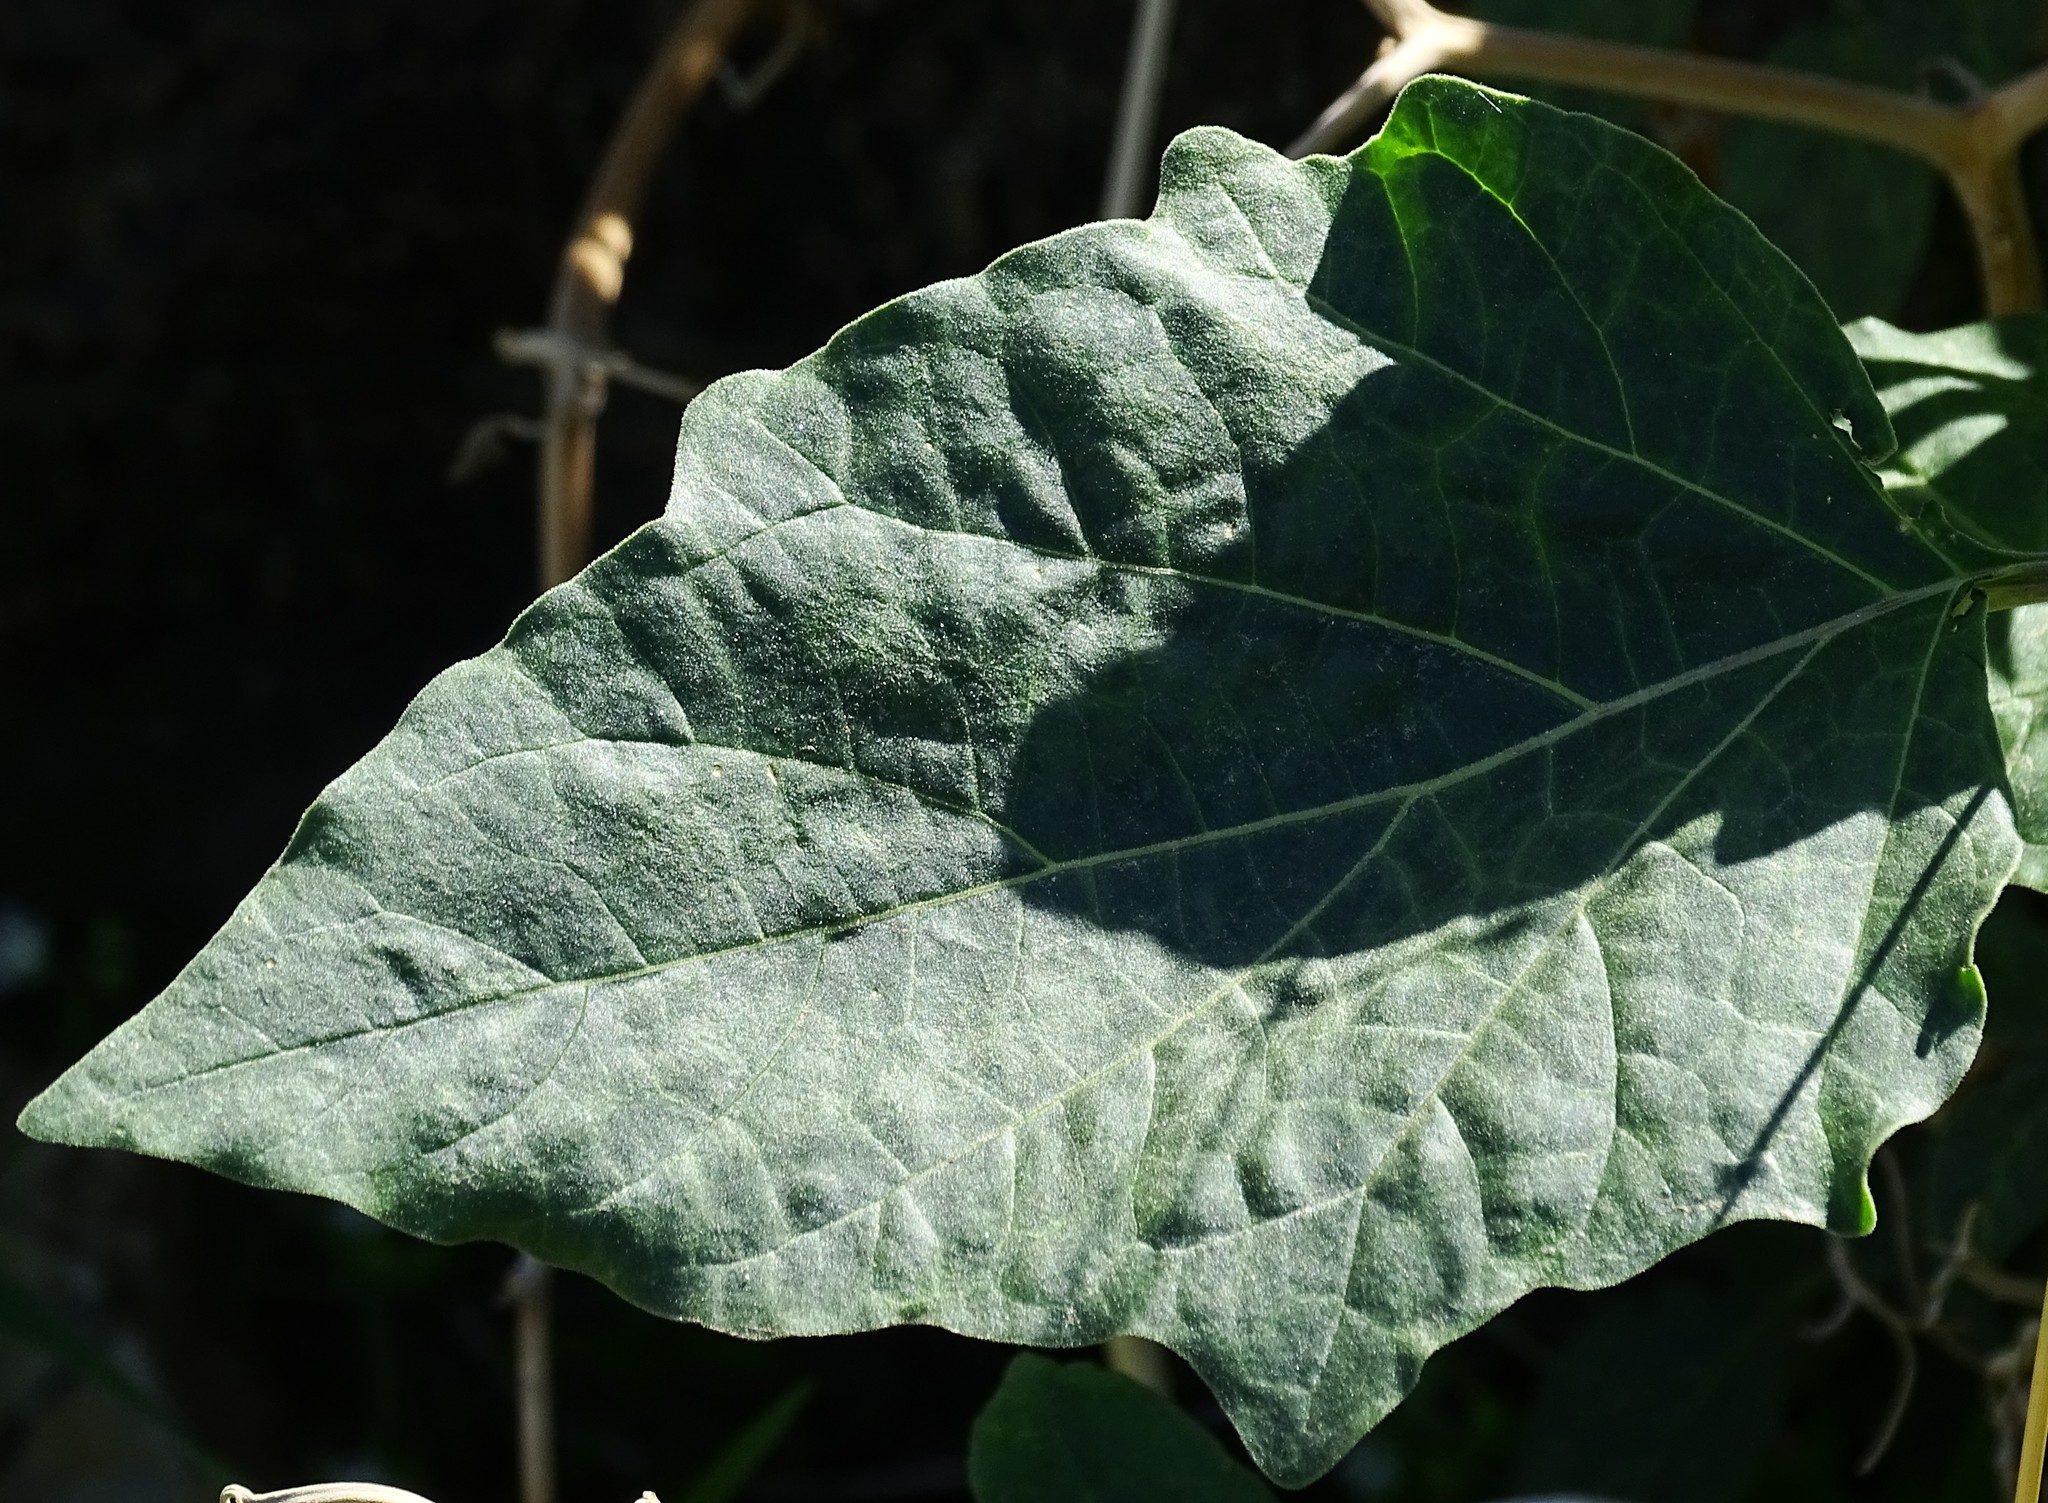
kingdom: Plantae
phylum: Tracheophyta
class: Magnoliopsida
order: Solanales
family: Solanaceae
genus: Datura
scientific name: Datura wrightii
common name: Sacred thorn-apple
